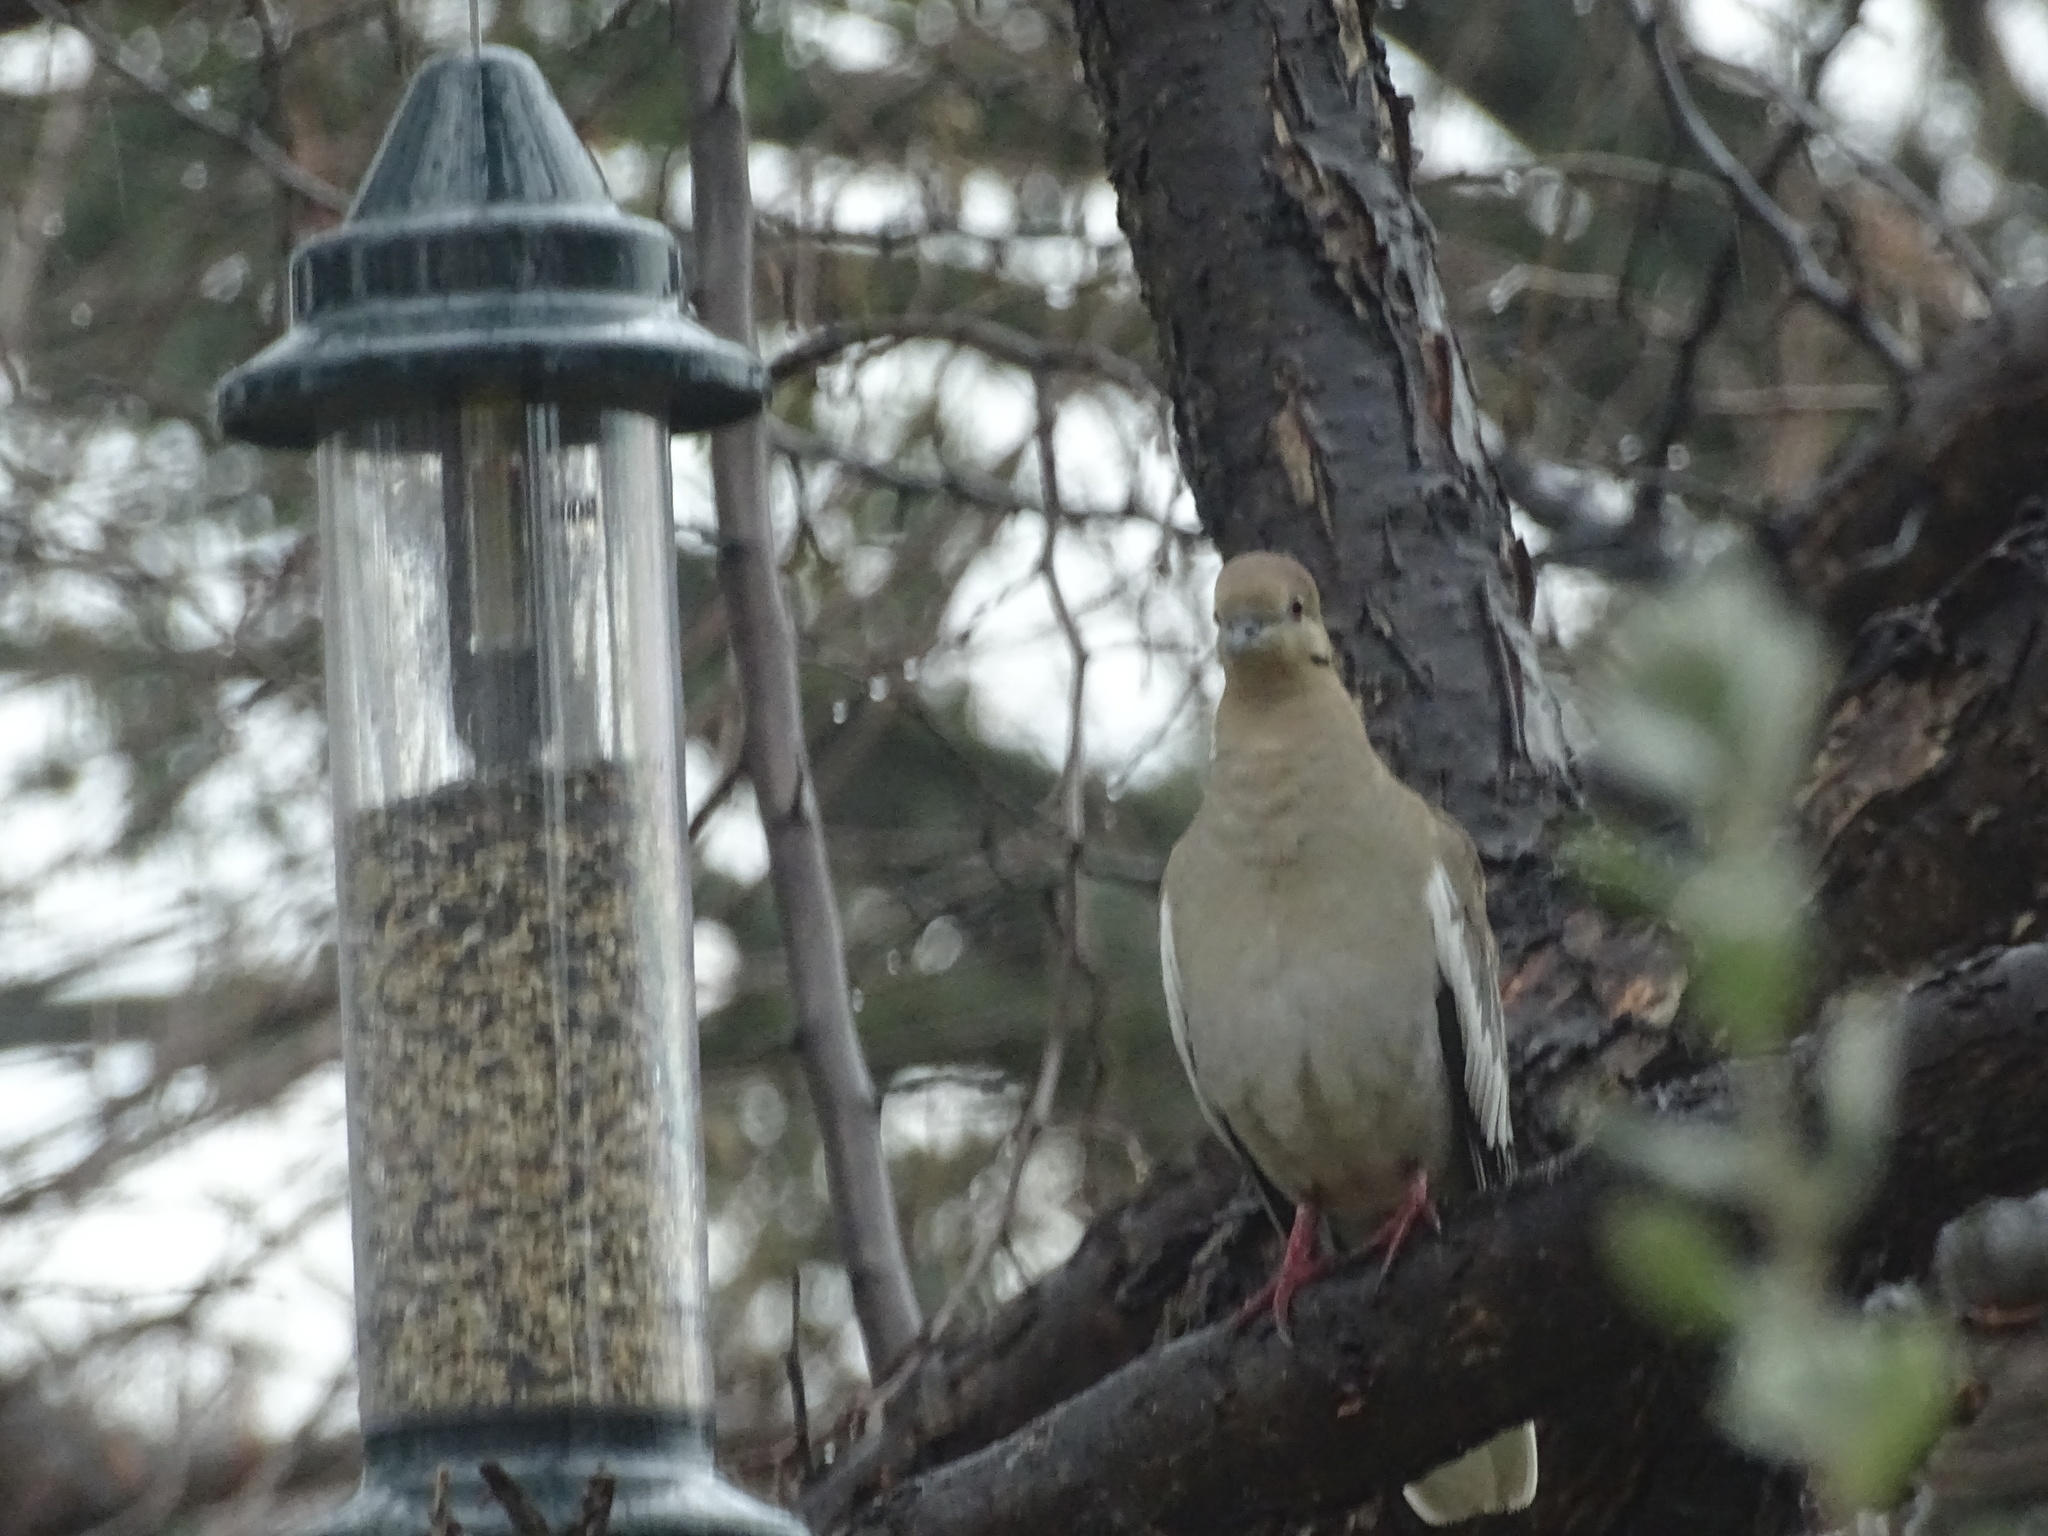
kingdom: Animalia
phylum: Chordata
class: Aves
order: Columbiformes
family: Columbidae
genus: Zenaida
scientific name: Zenaida asiatica
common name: White-winged dove
